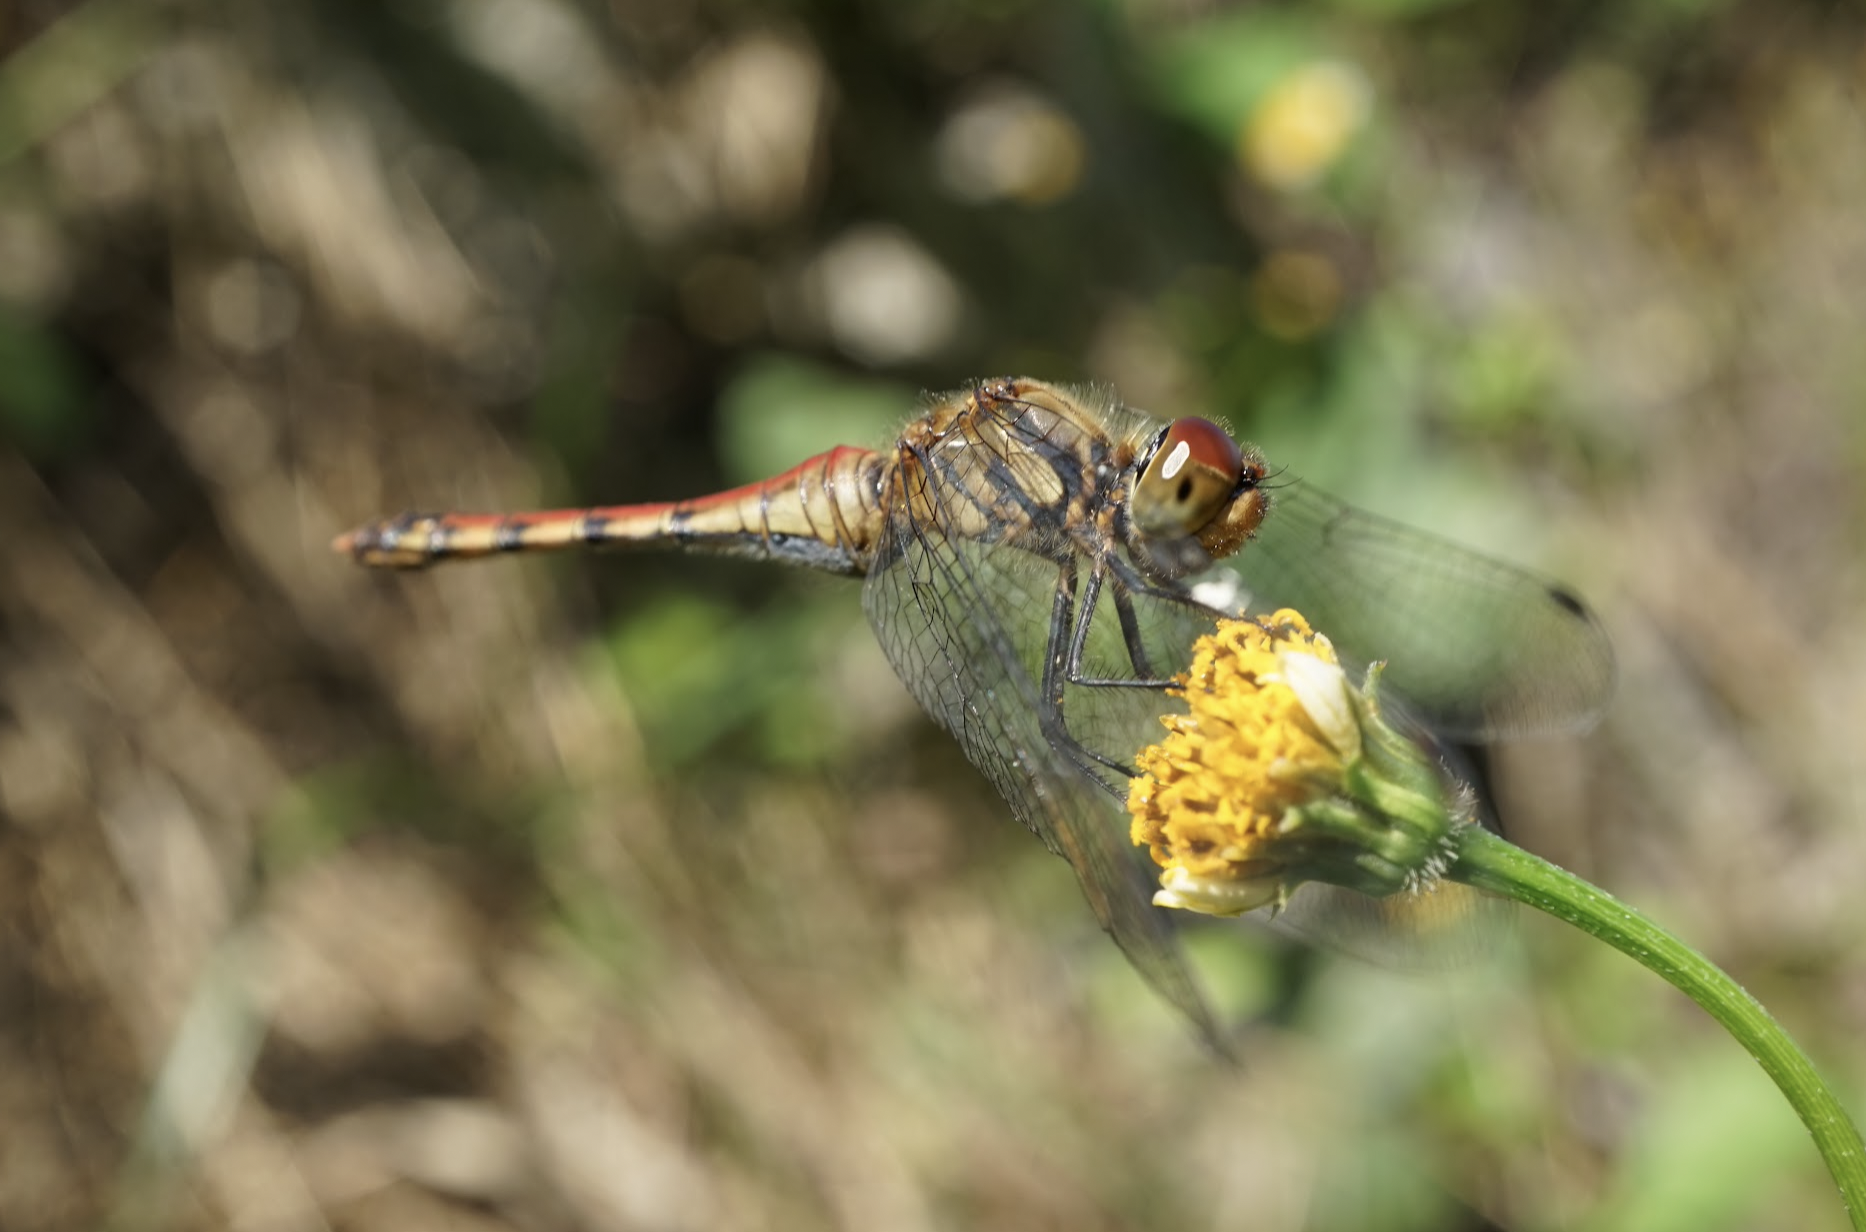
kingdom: Animalia
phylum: Arthropoda
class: Insecta
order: Odonata
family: Libellulidae
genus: Sympetrum
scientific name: Sympetrum darwinianum
